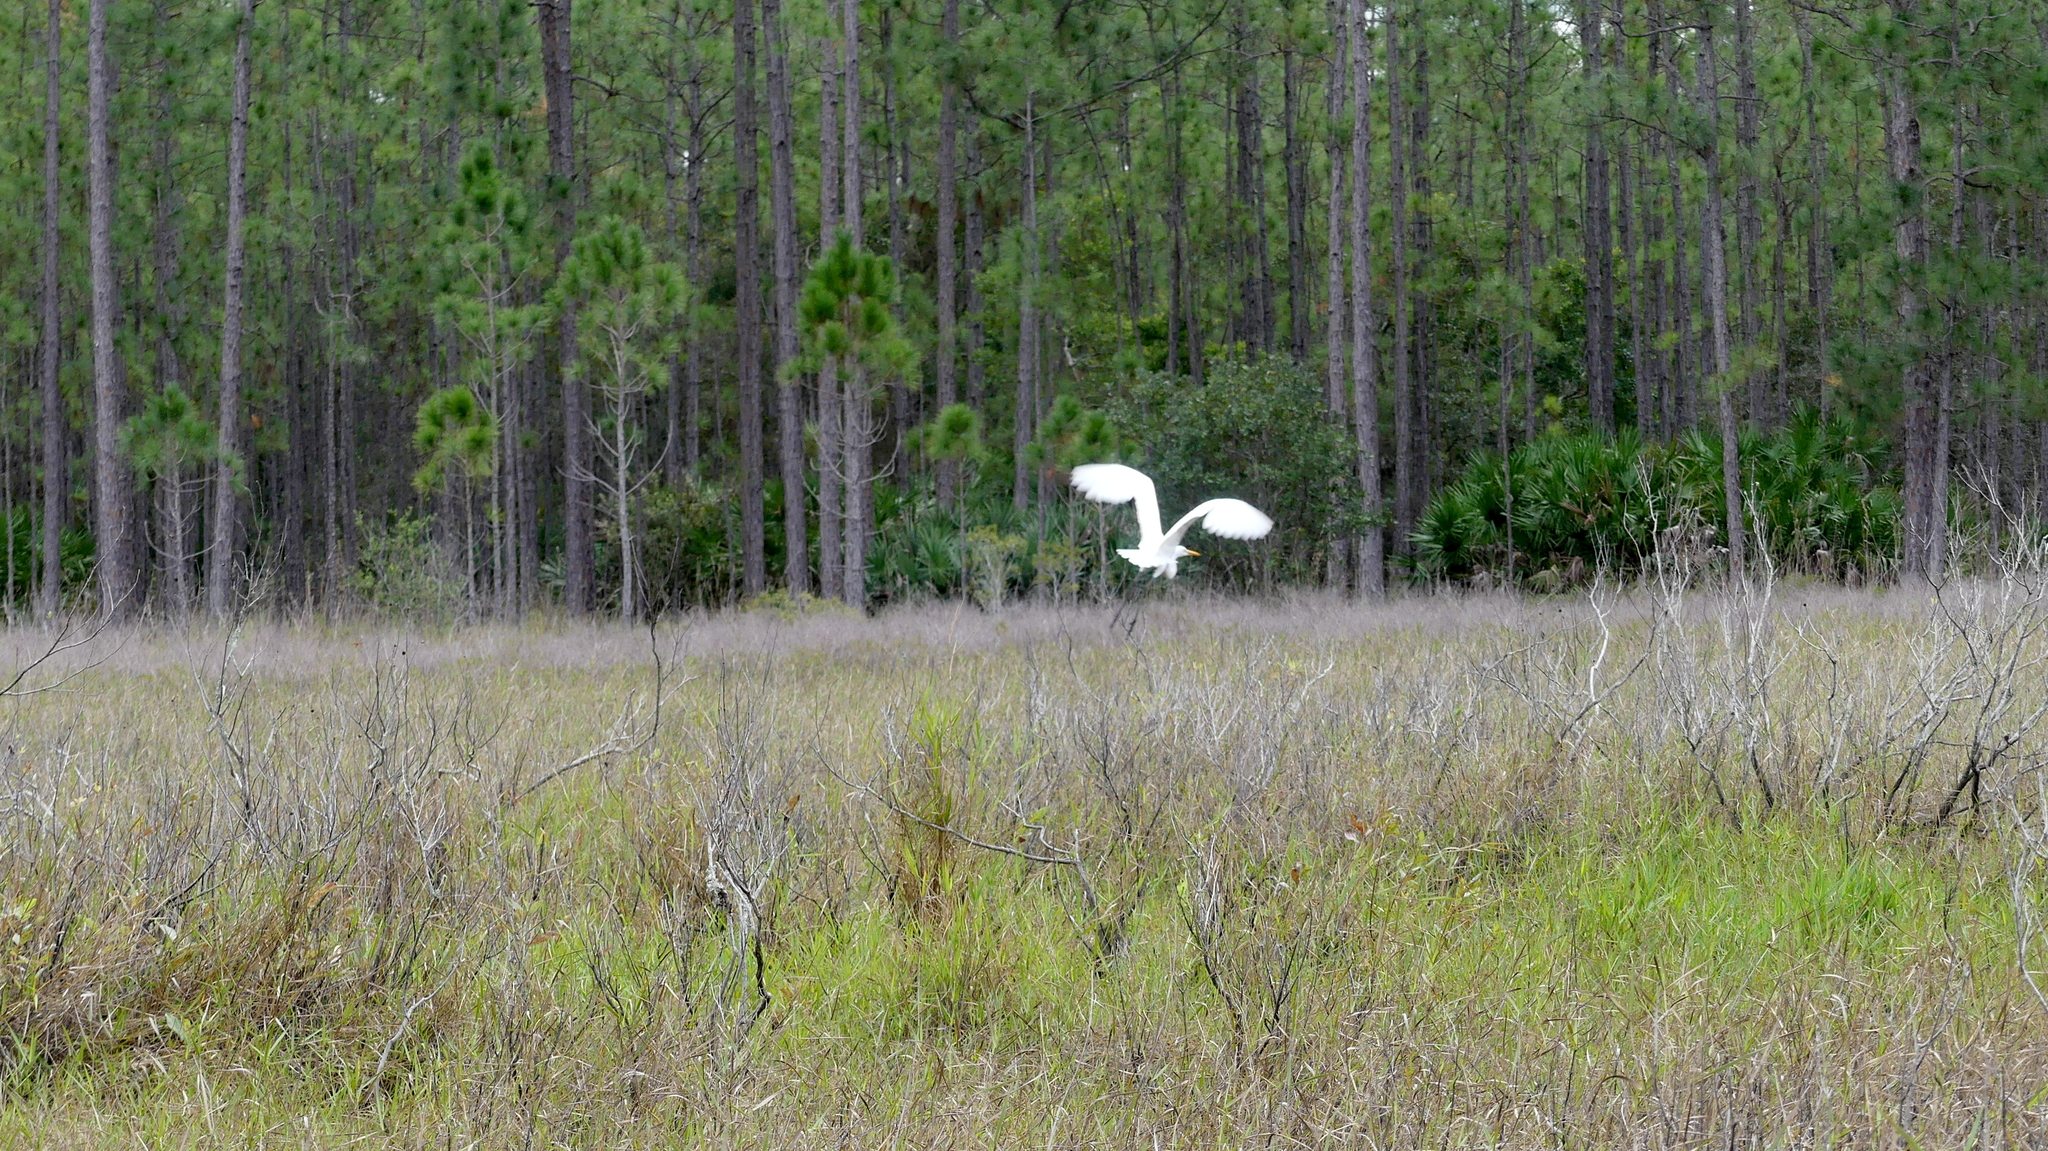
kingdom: Animalia
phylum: Chordata
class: Aves
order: Pelecaniformes
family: Ardeidae
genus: Ardea
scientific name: Ardea alba
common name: Great egret
